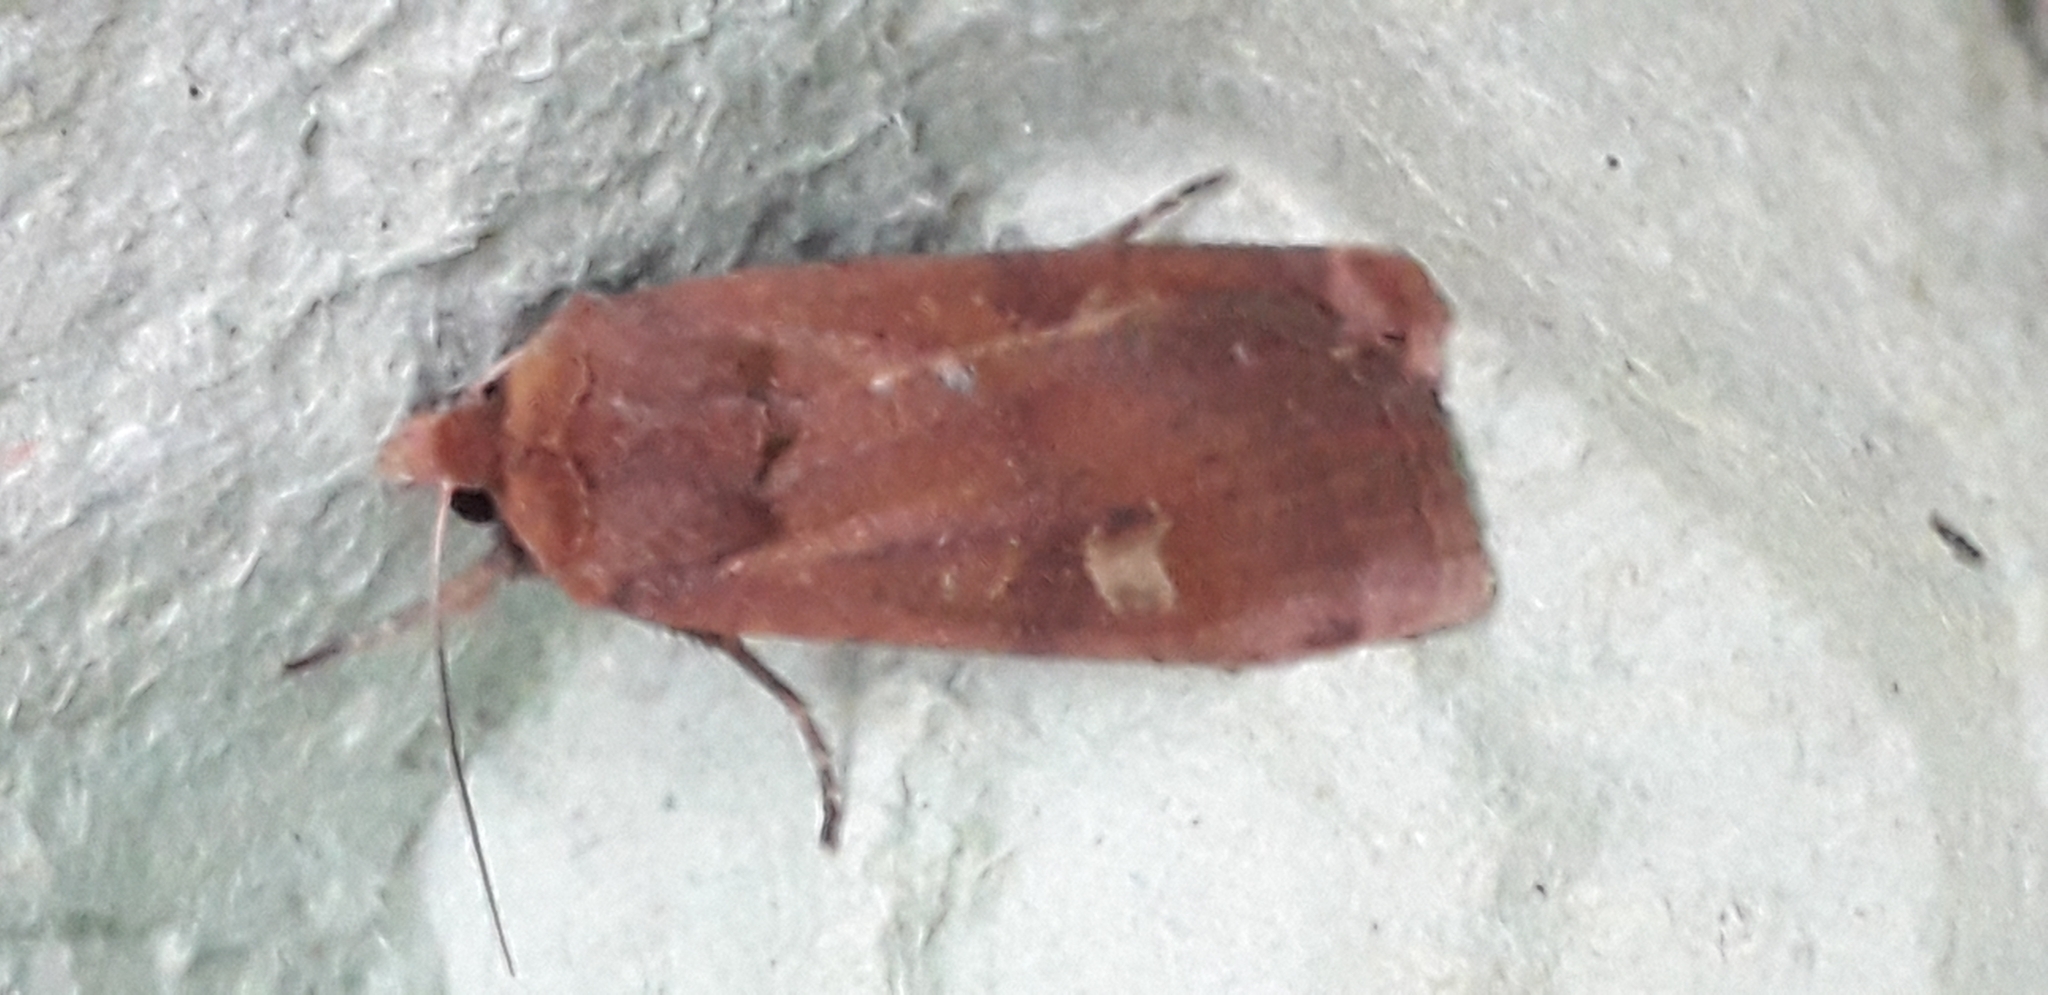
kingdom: Animalia
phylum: Arthropoda
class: Insecta
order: Lepidoptera
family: Noctuidae
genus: Xestia
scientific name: Xestia xanthographa
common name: Square-spot rustic
